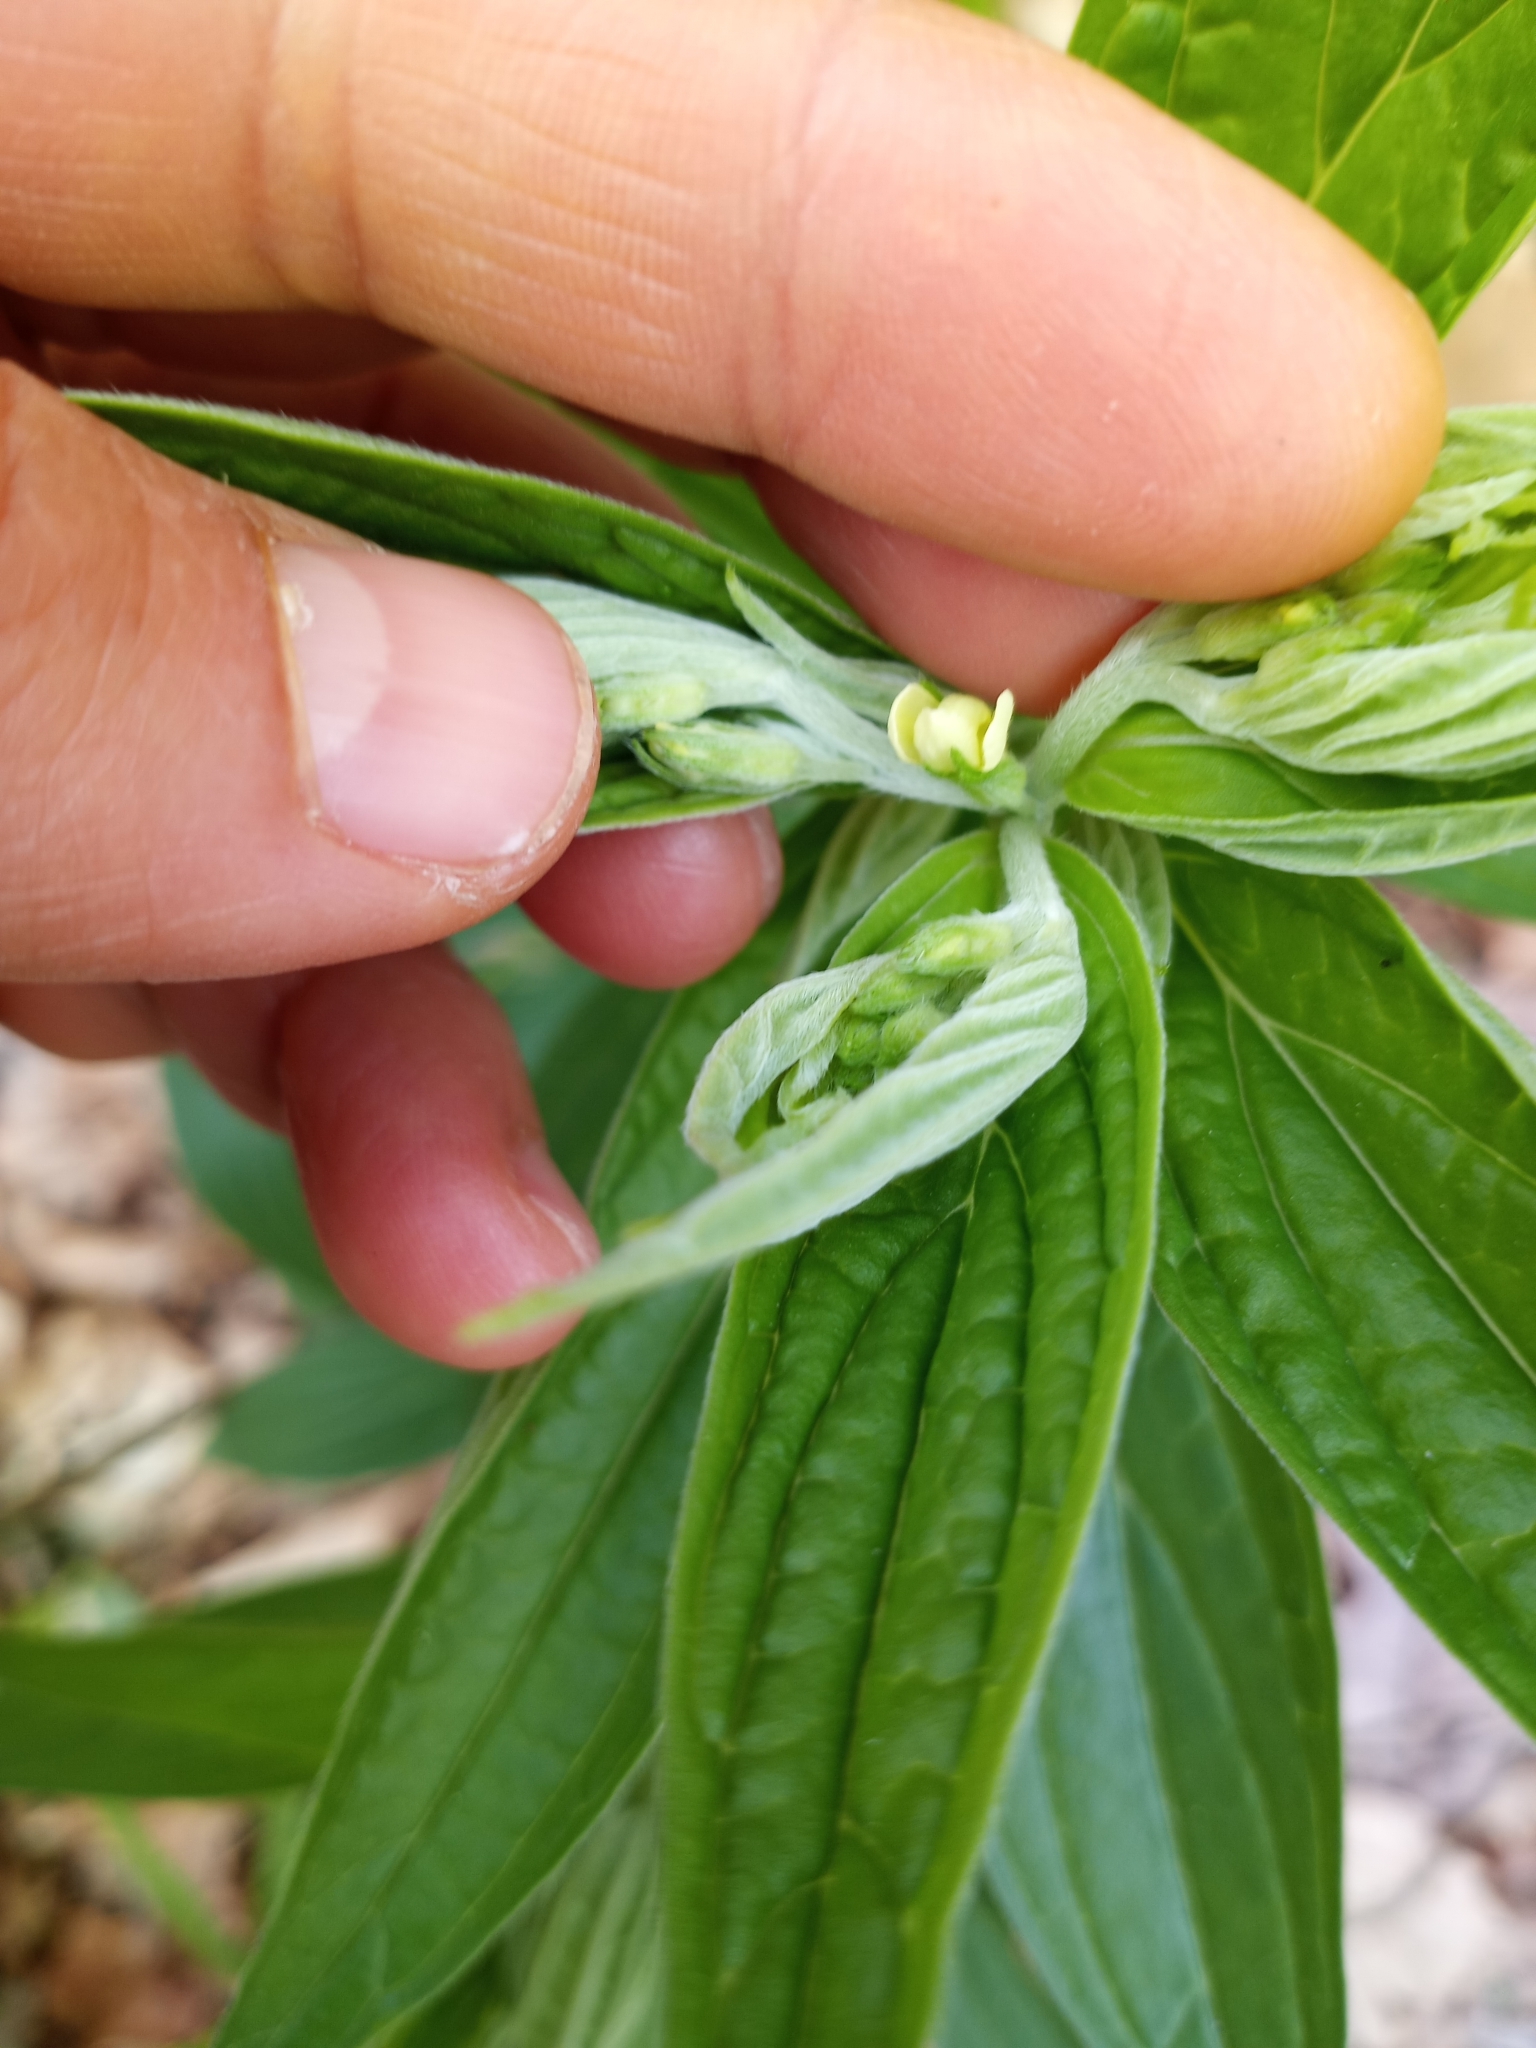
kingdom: Plantae
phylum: Tracheophyta
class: Magnoliopsida
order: Boraginales
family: Boraginaceae
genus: Lithospermum
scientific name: Lithospermum latifolium
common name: American gromwell
